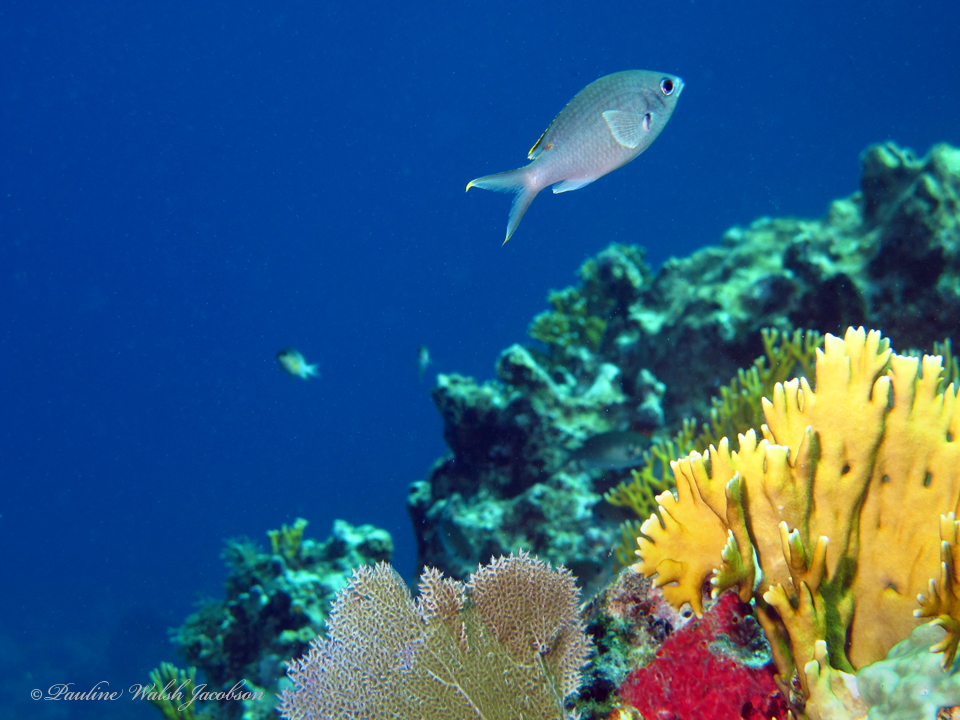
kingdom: Animalia
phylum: Chordata
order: Perciformes
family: Pomacentridae
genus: Chromis
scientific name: Chromis multilineata
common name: Brown chromis
